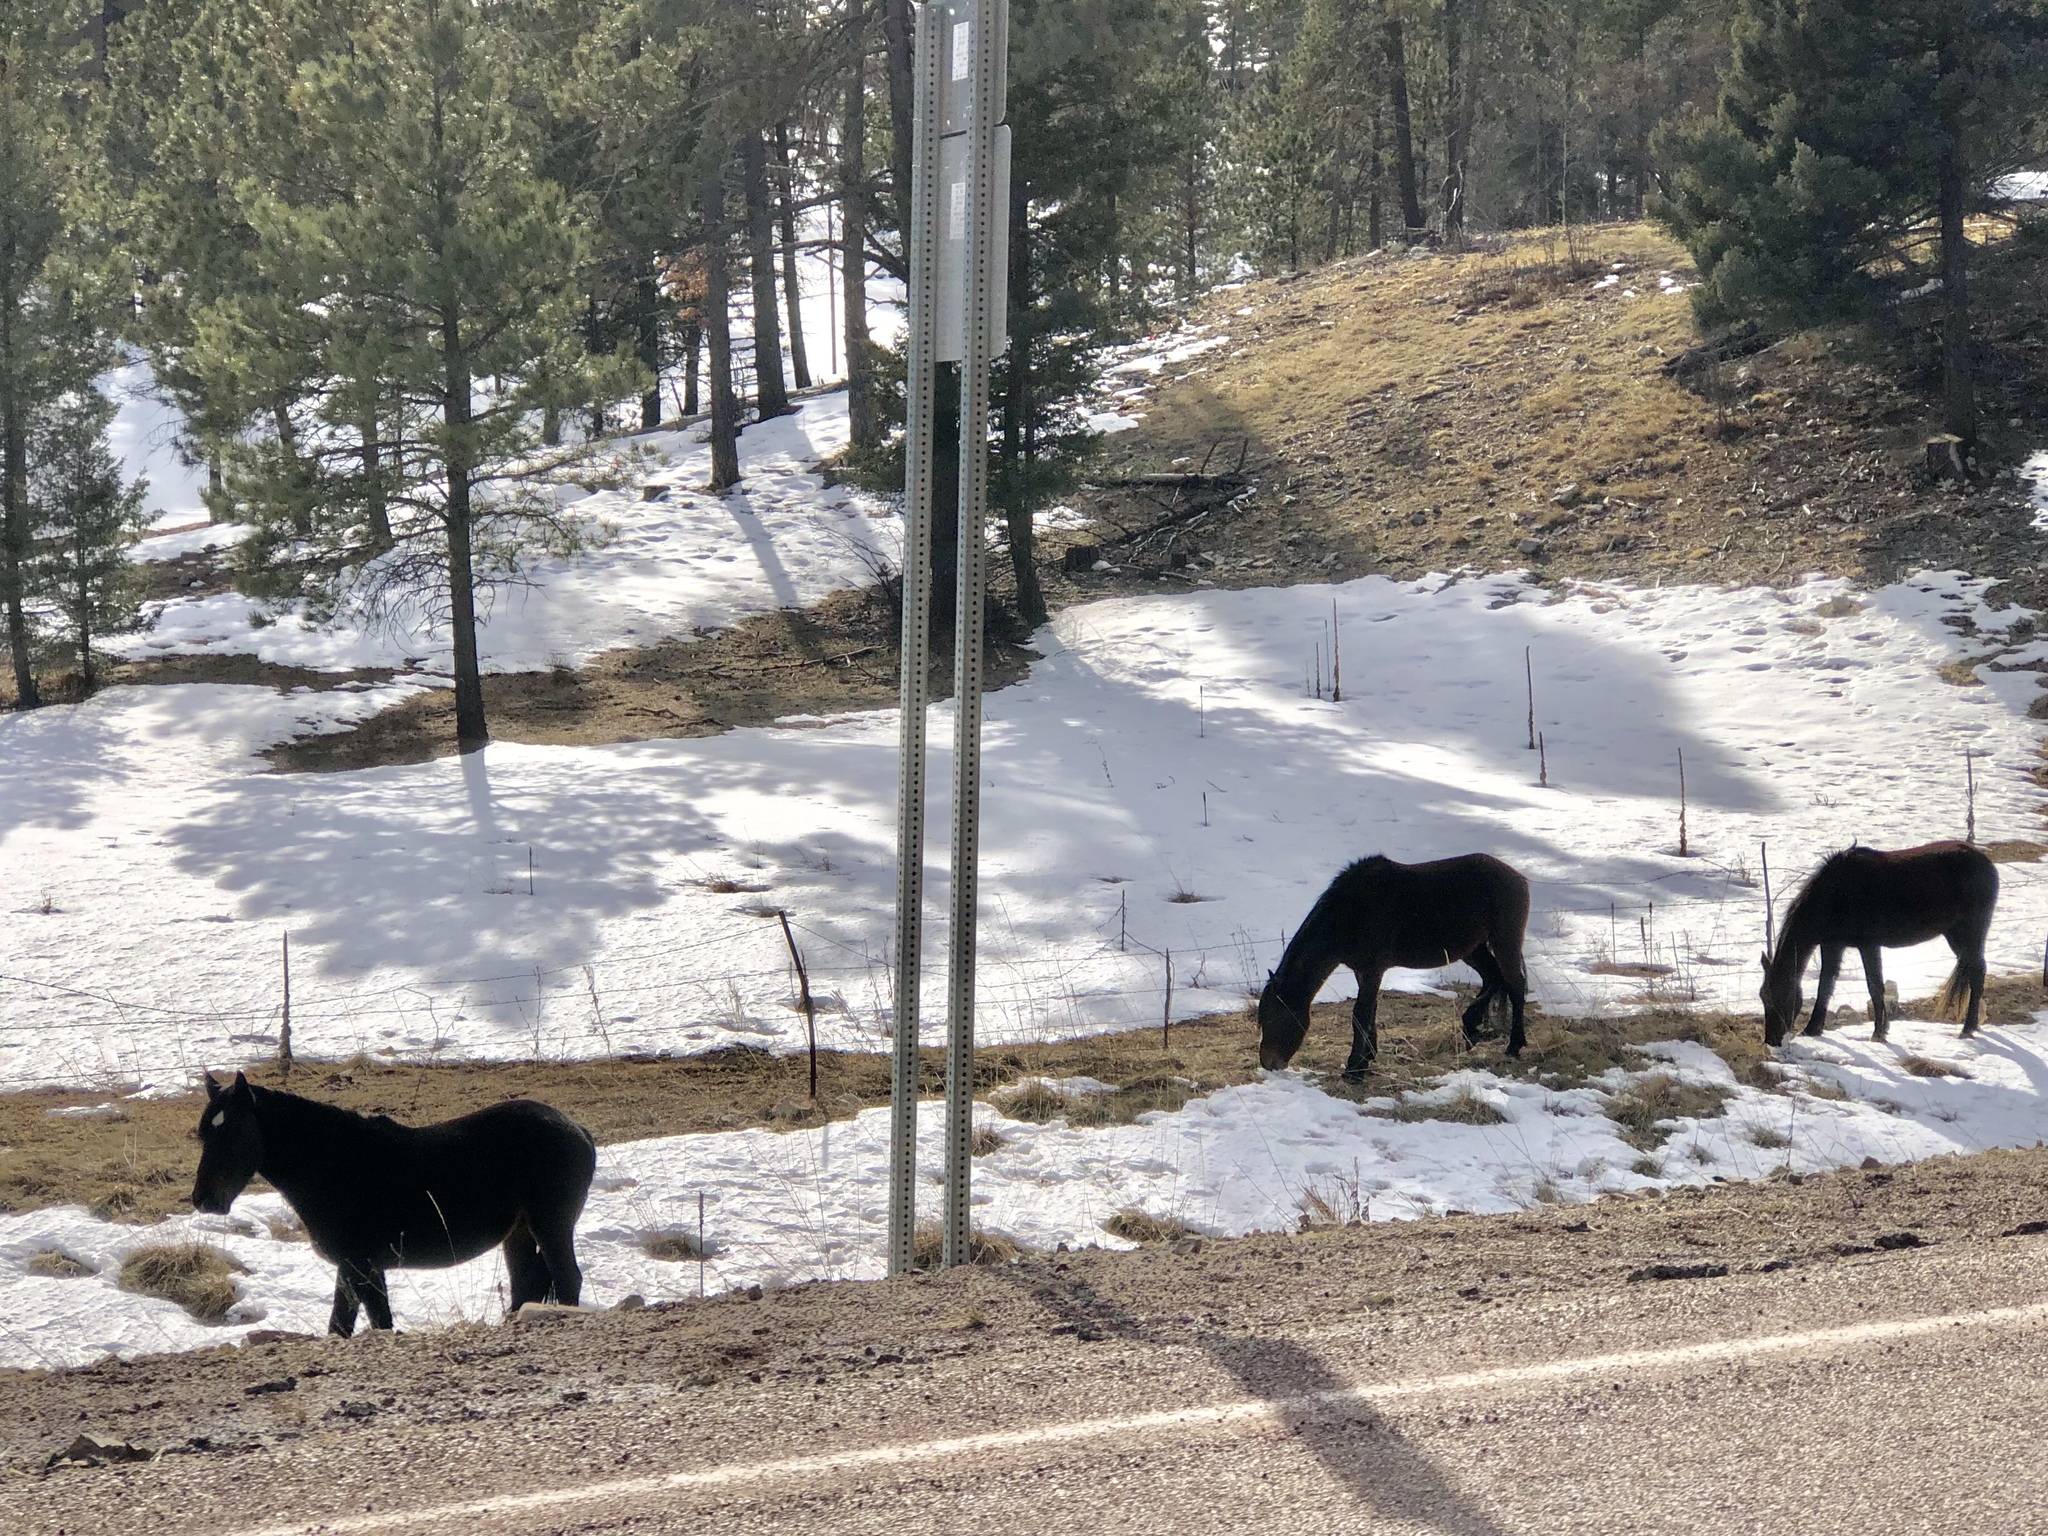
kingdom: Animalia
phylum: Chordata
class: Mammalia
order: Perissodactyla
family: Equidae
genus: Equus
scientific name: Equus caballus
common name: Horse
